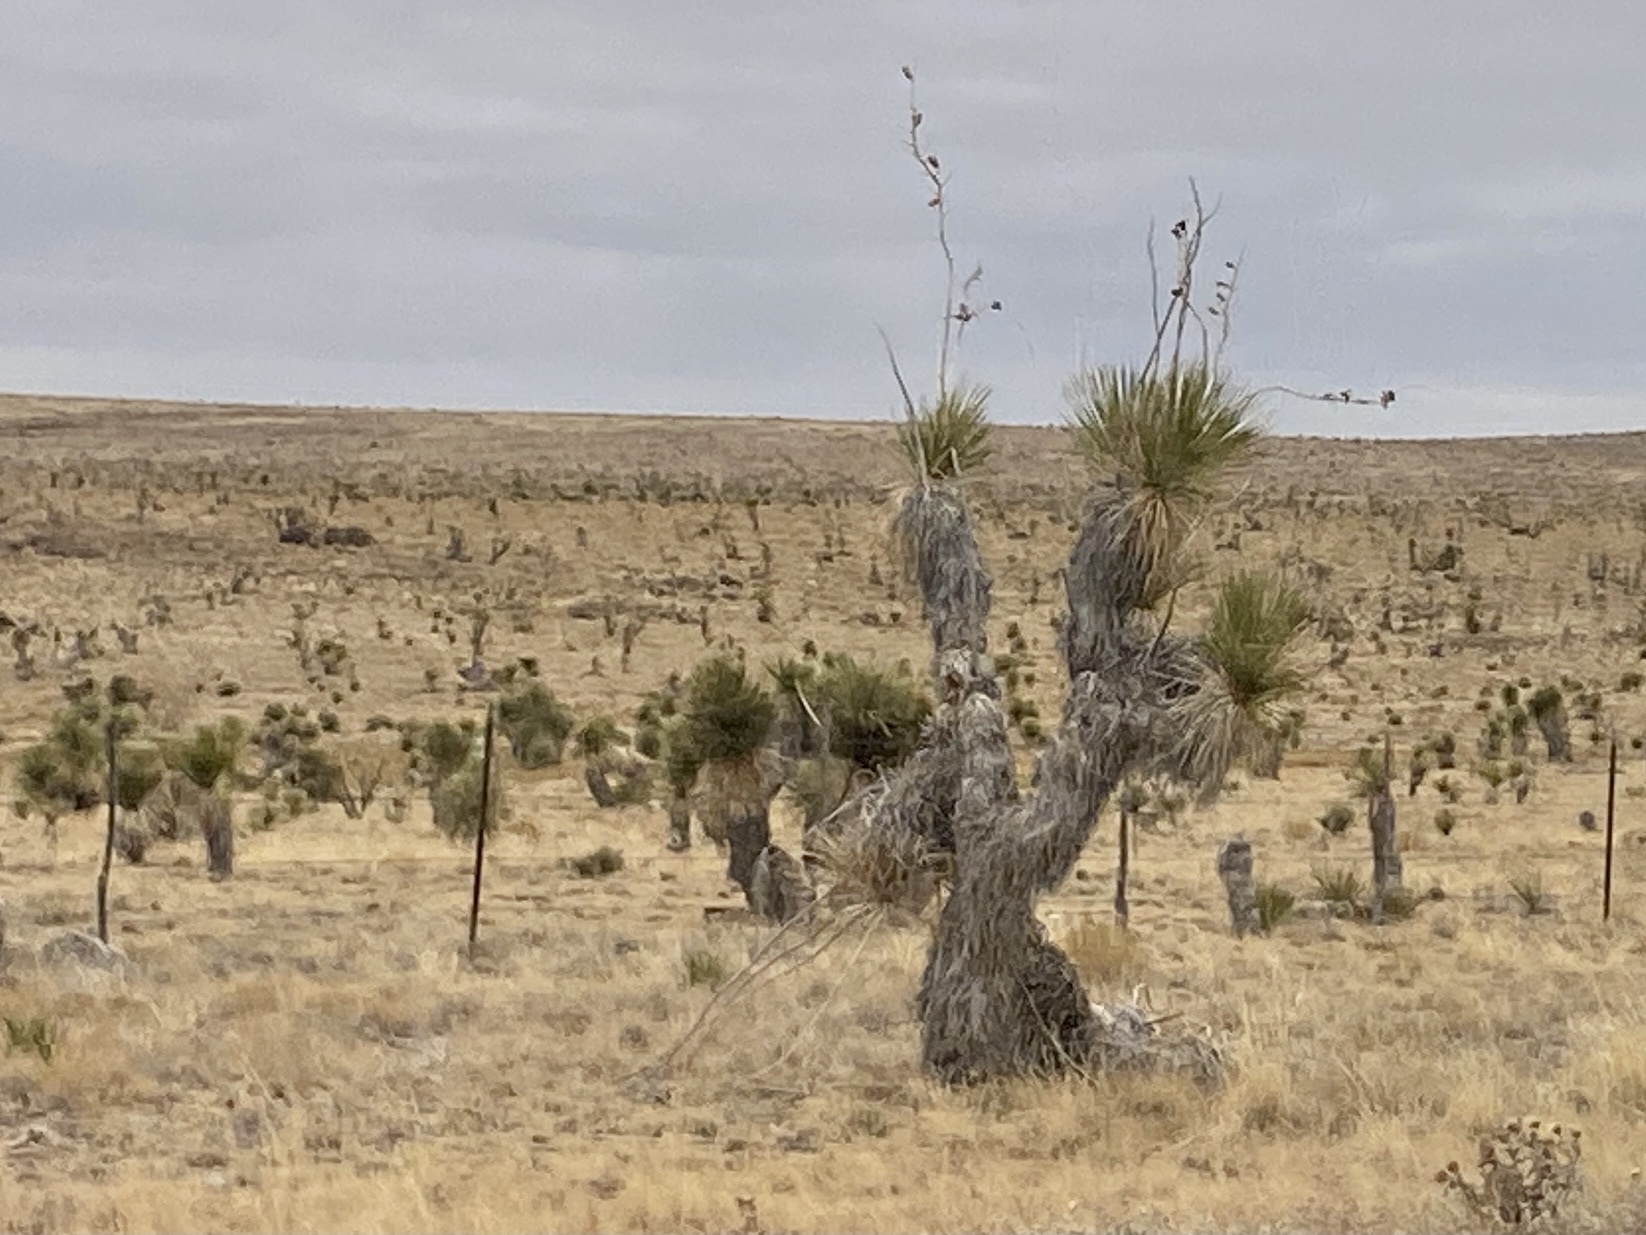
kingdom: Plantae
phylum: Tracheophyta
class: Liliopsida
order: Asparagales
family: Asparagaceae
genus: Yucca
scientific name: Yucca elata
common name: Palmella
